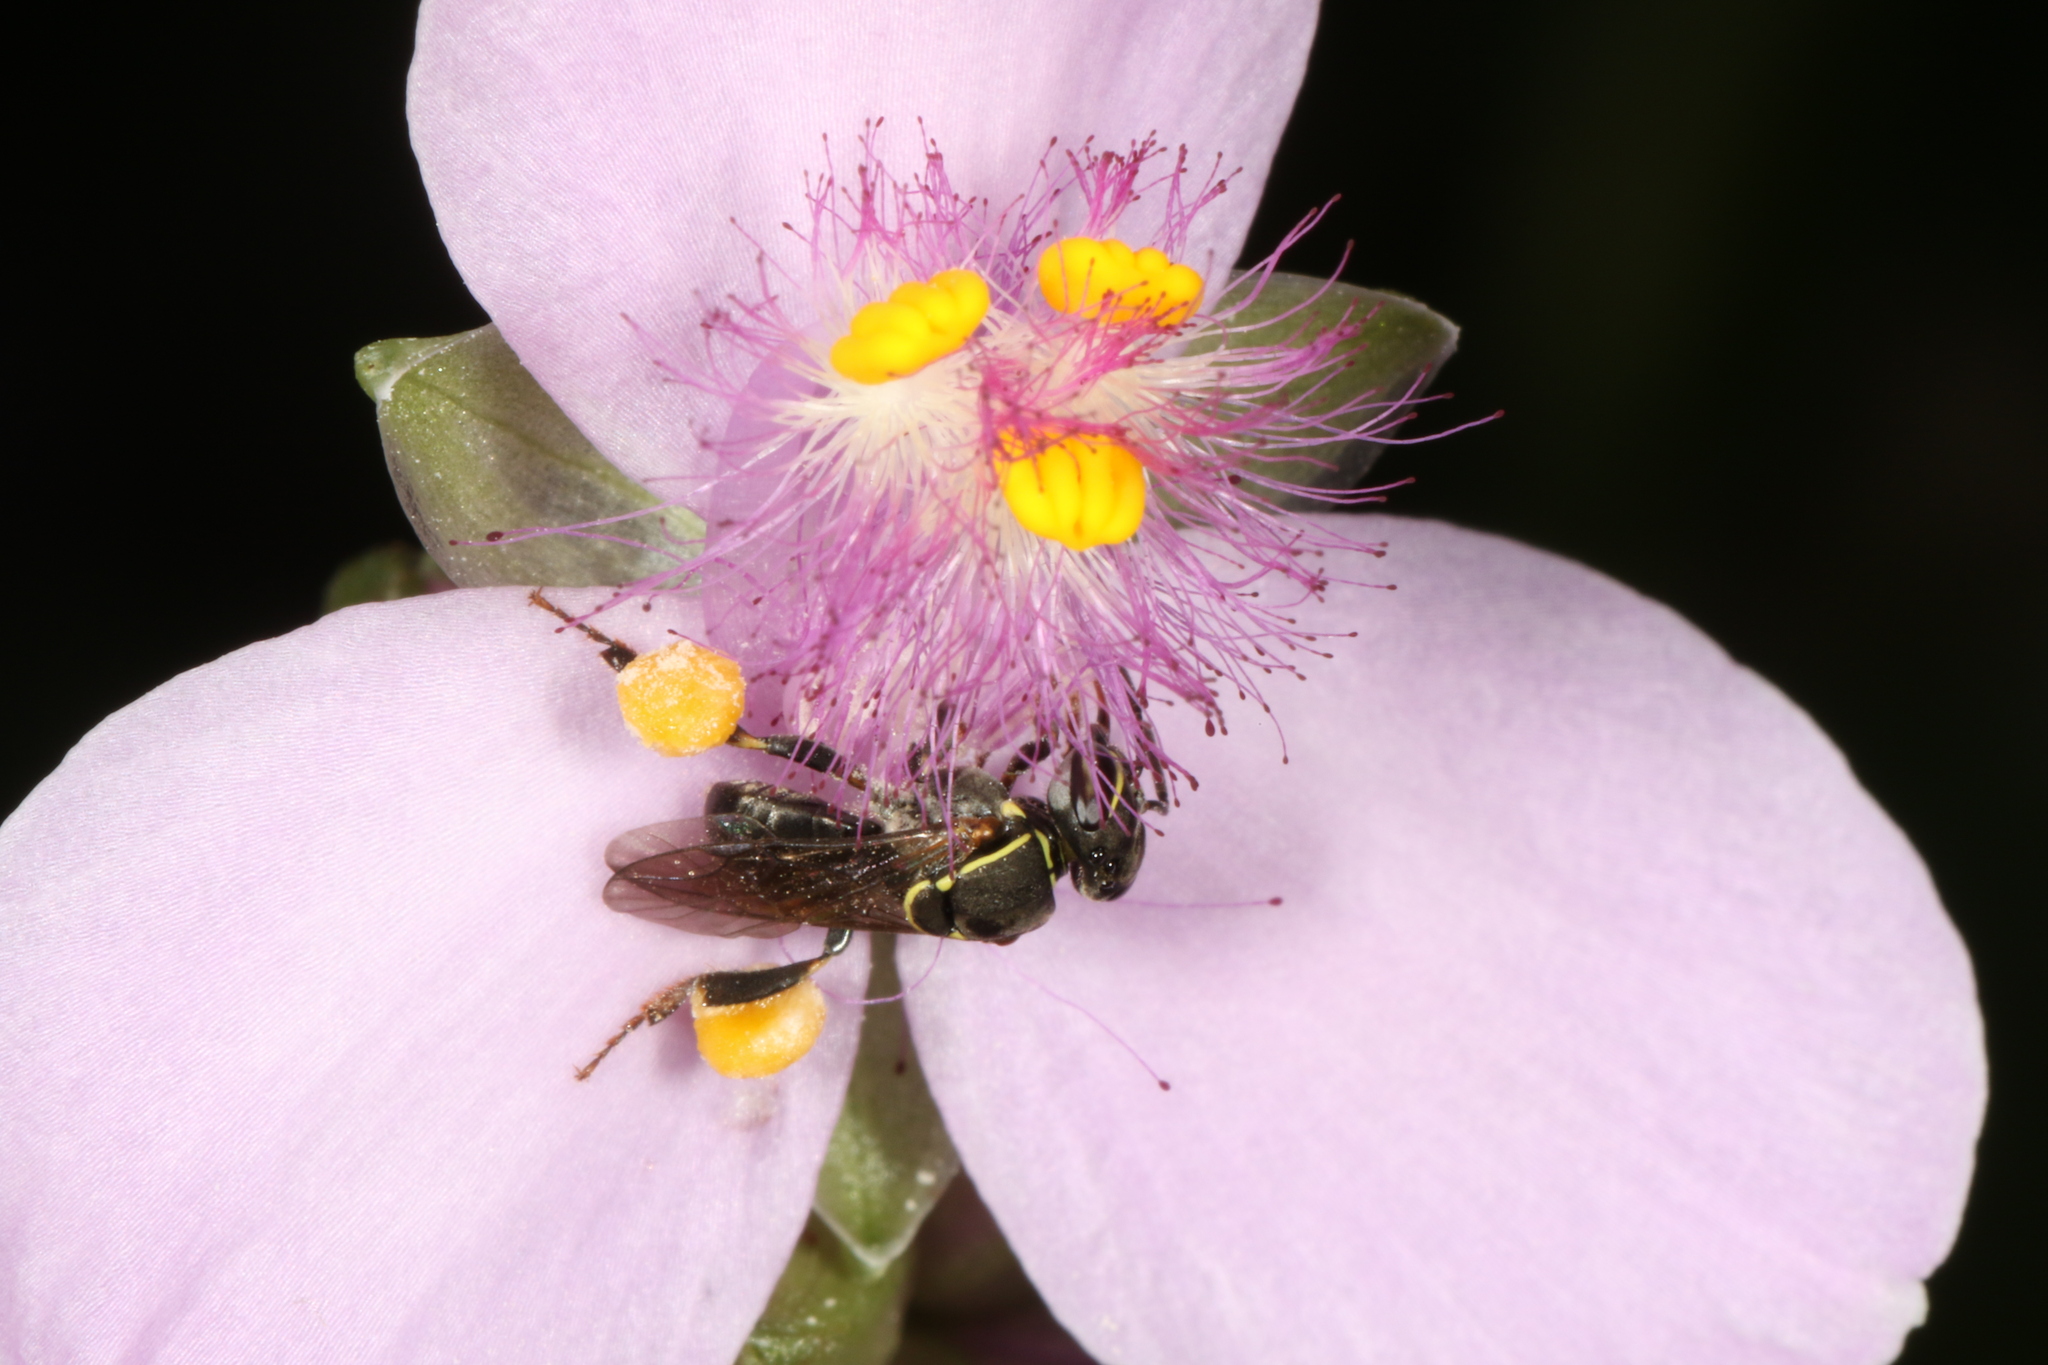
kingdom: Animalia
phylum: Arthropoda
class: Insecta
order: Hymenoptera
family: Apidae
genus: Paratrigona
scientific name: Paratrigona subnuda
